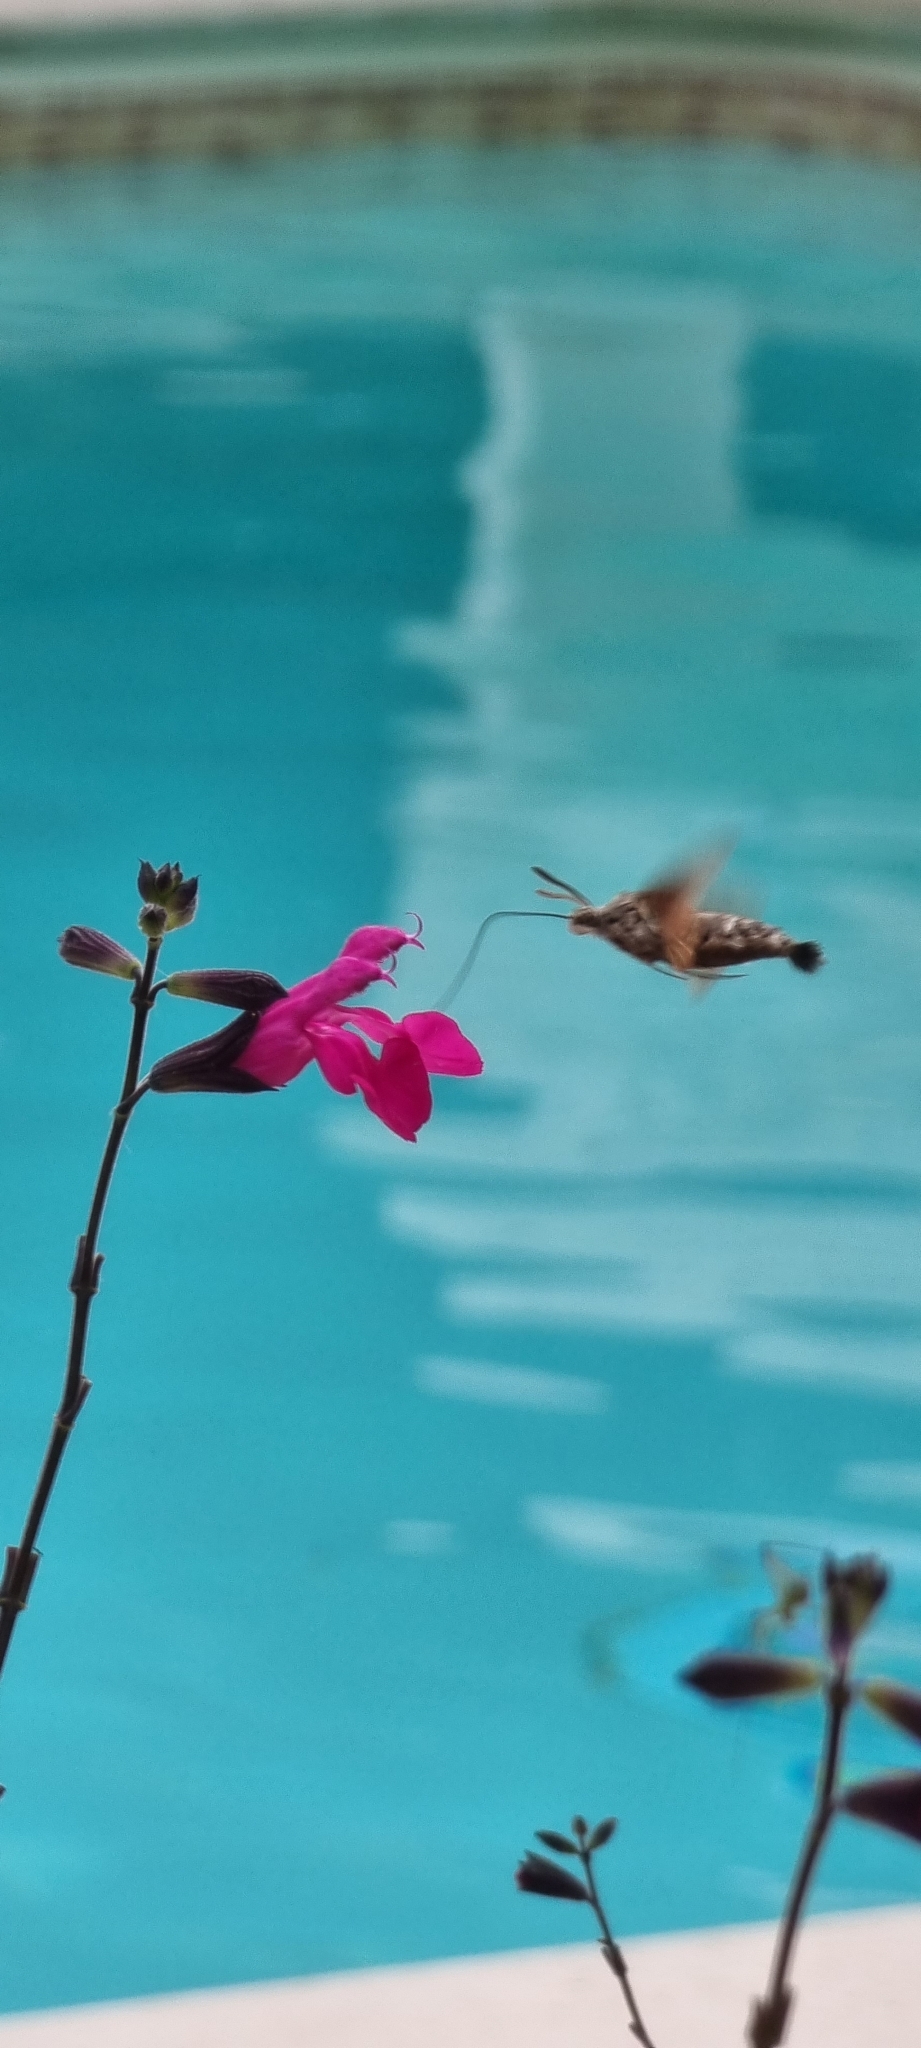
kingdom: Animalia
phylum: Arthropoda
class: Insecta
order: Lepidoptera
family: Sphingidae
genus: Macroglossum
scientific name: Macroglossum stellatarum
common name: Humming-bird hawk-moth
